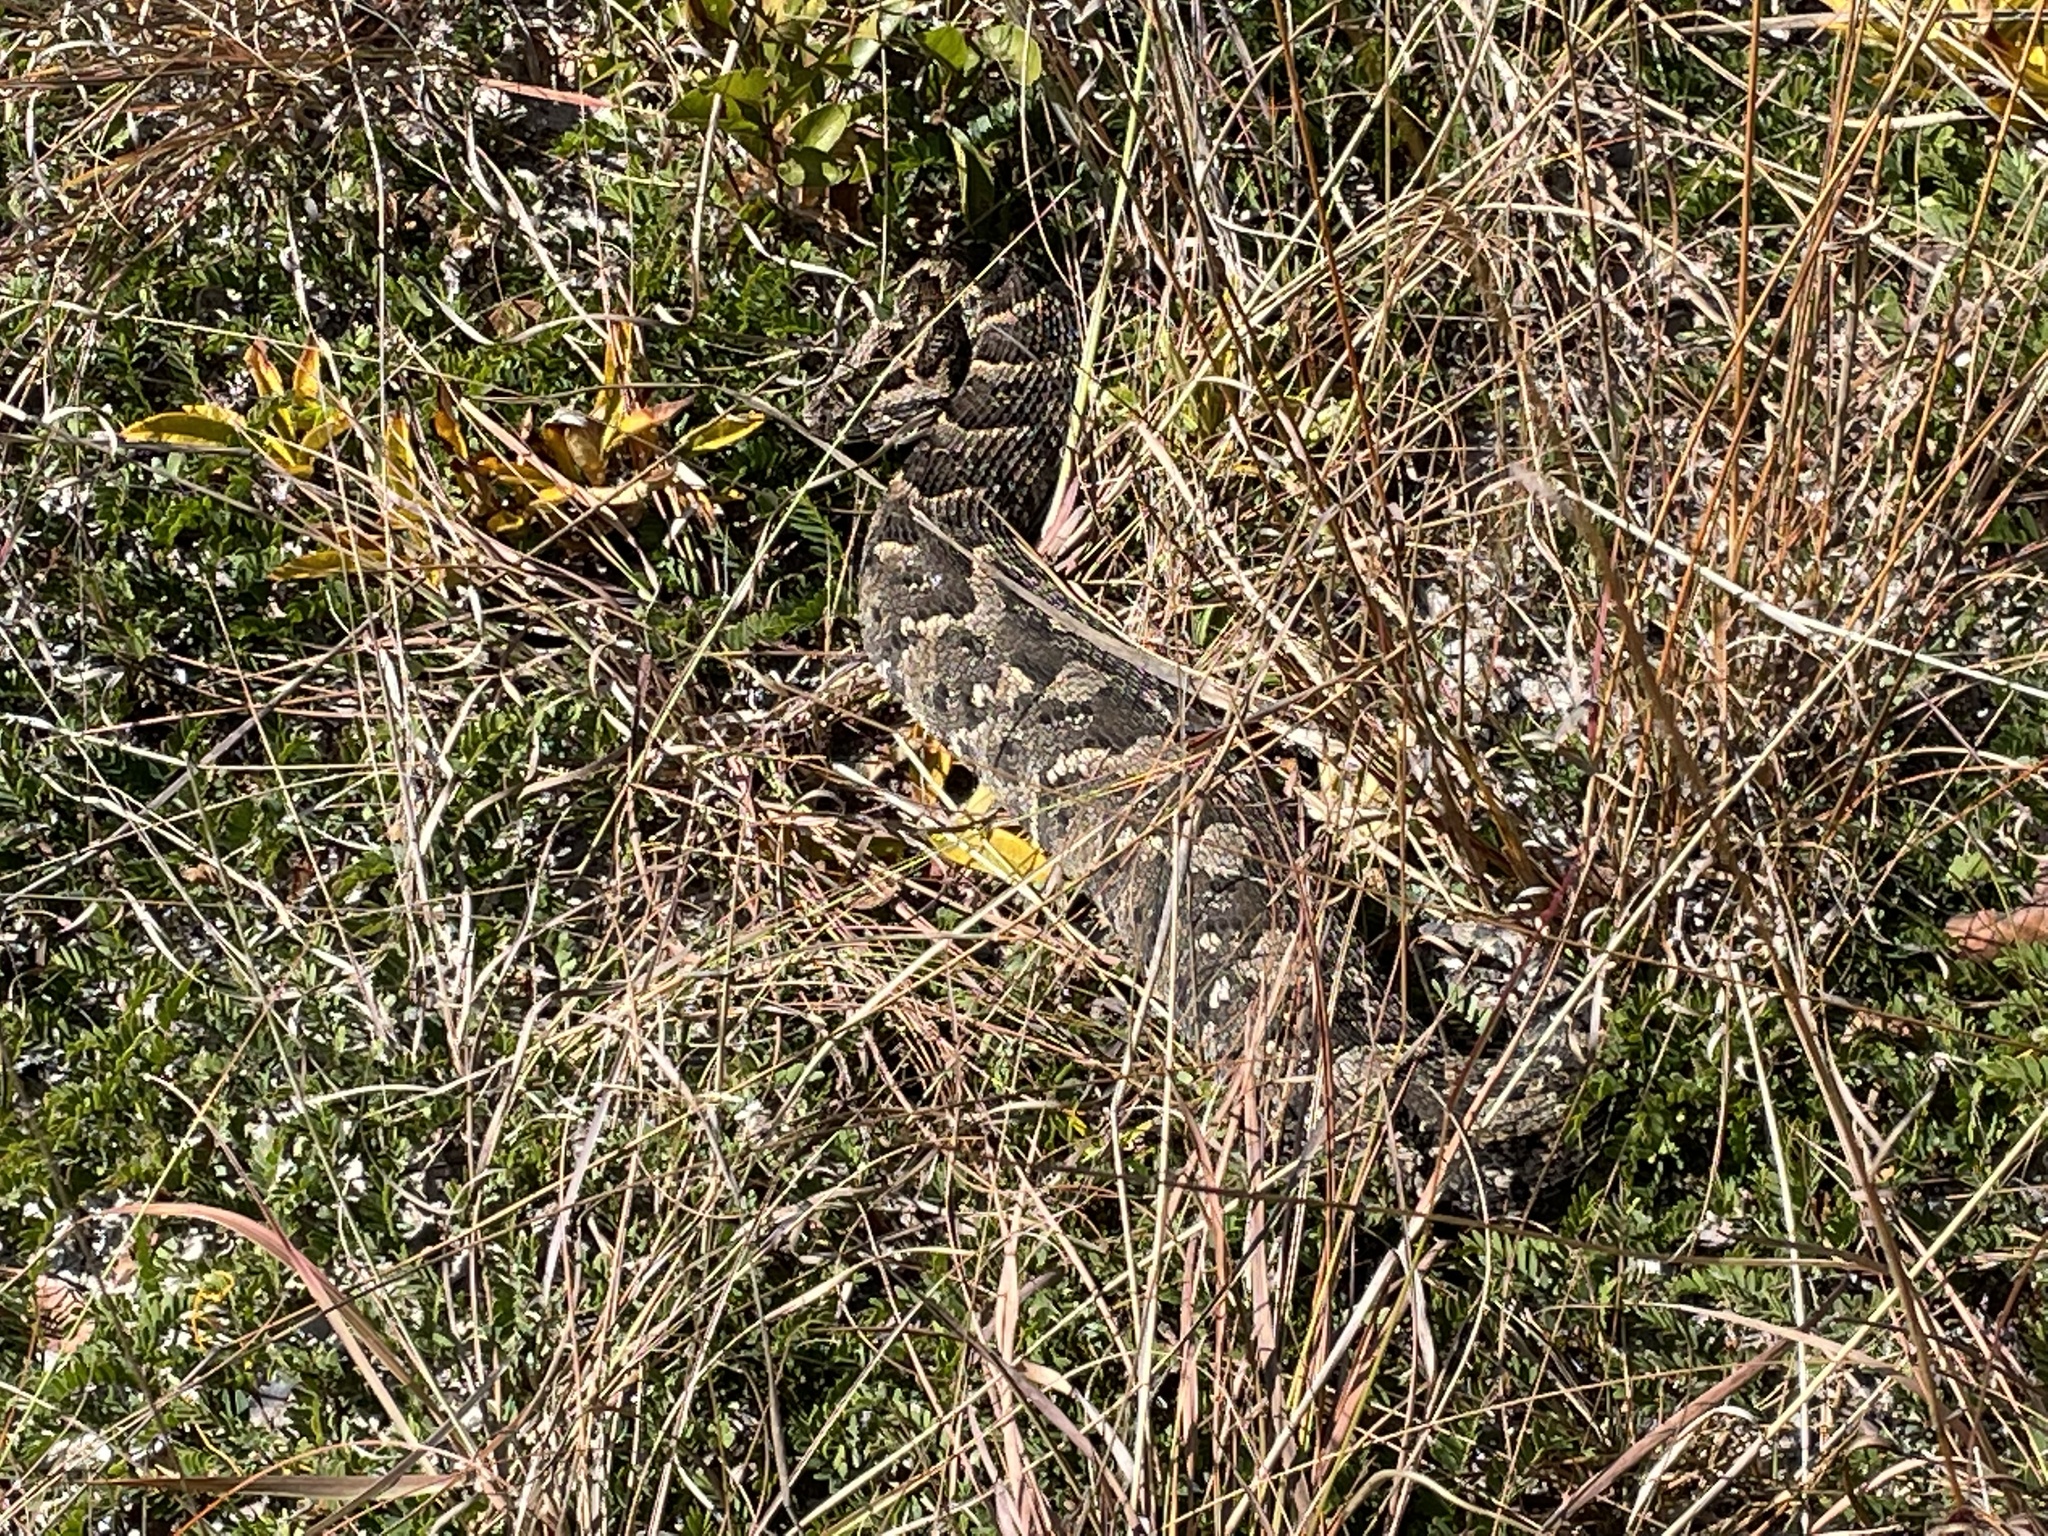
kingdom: Animalia
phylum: Chordata
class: Squamata
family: Viperidae
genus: Bitis
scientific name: Bitis arietans
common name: Puff adder
